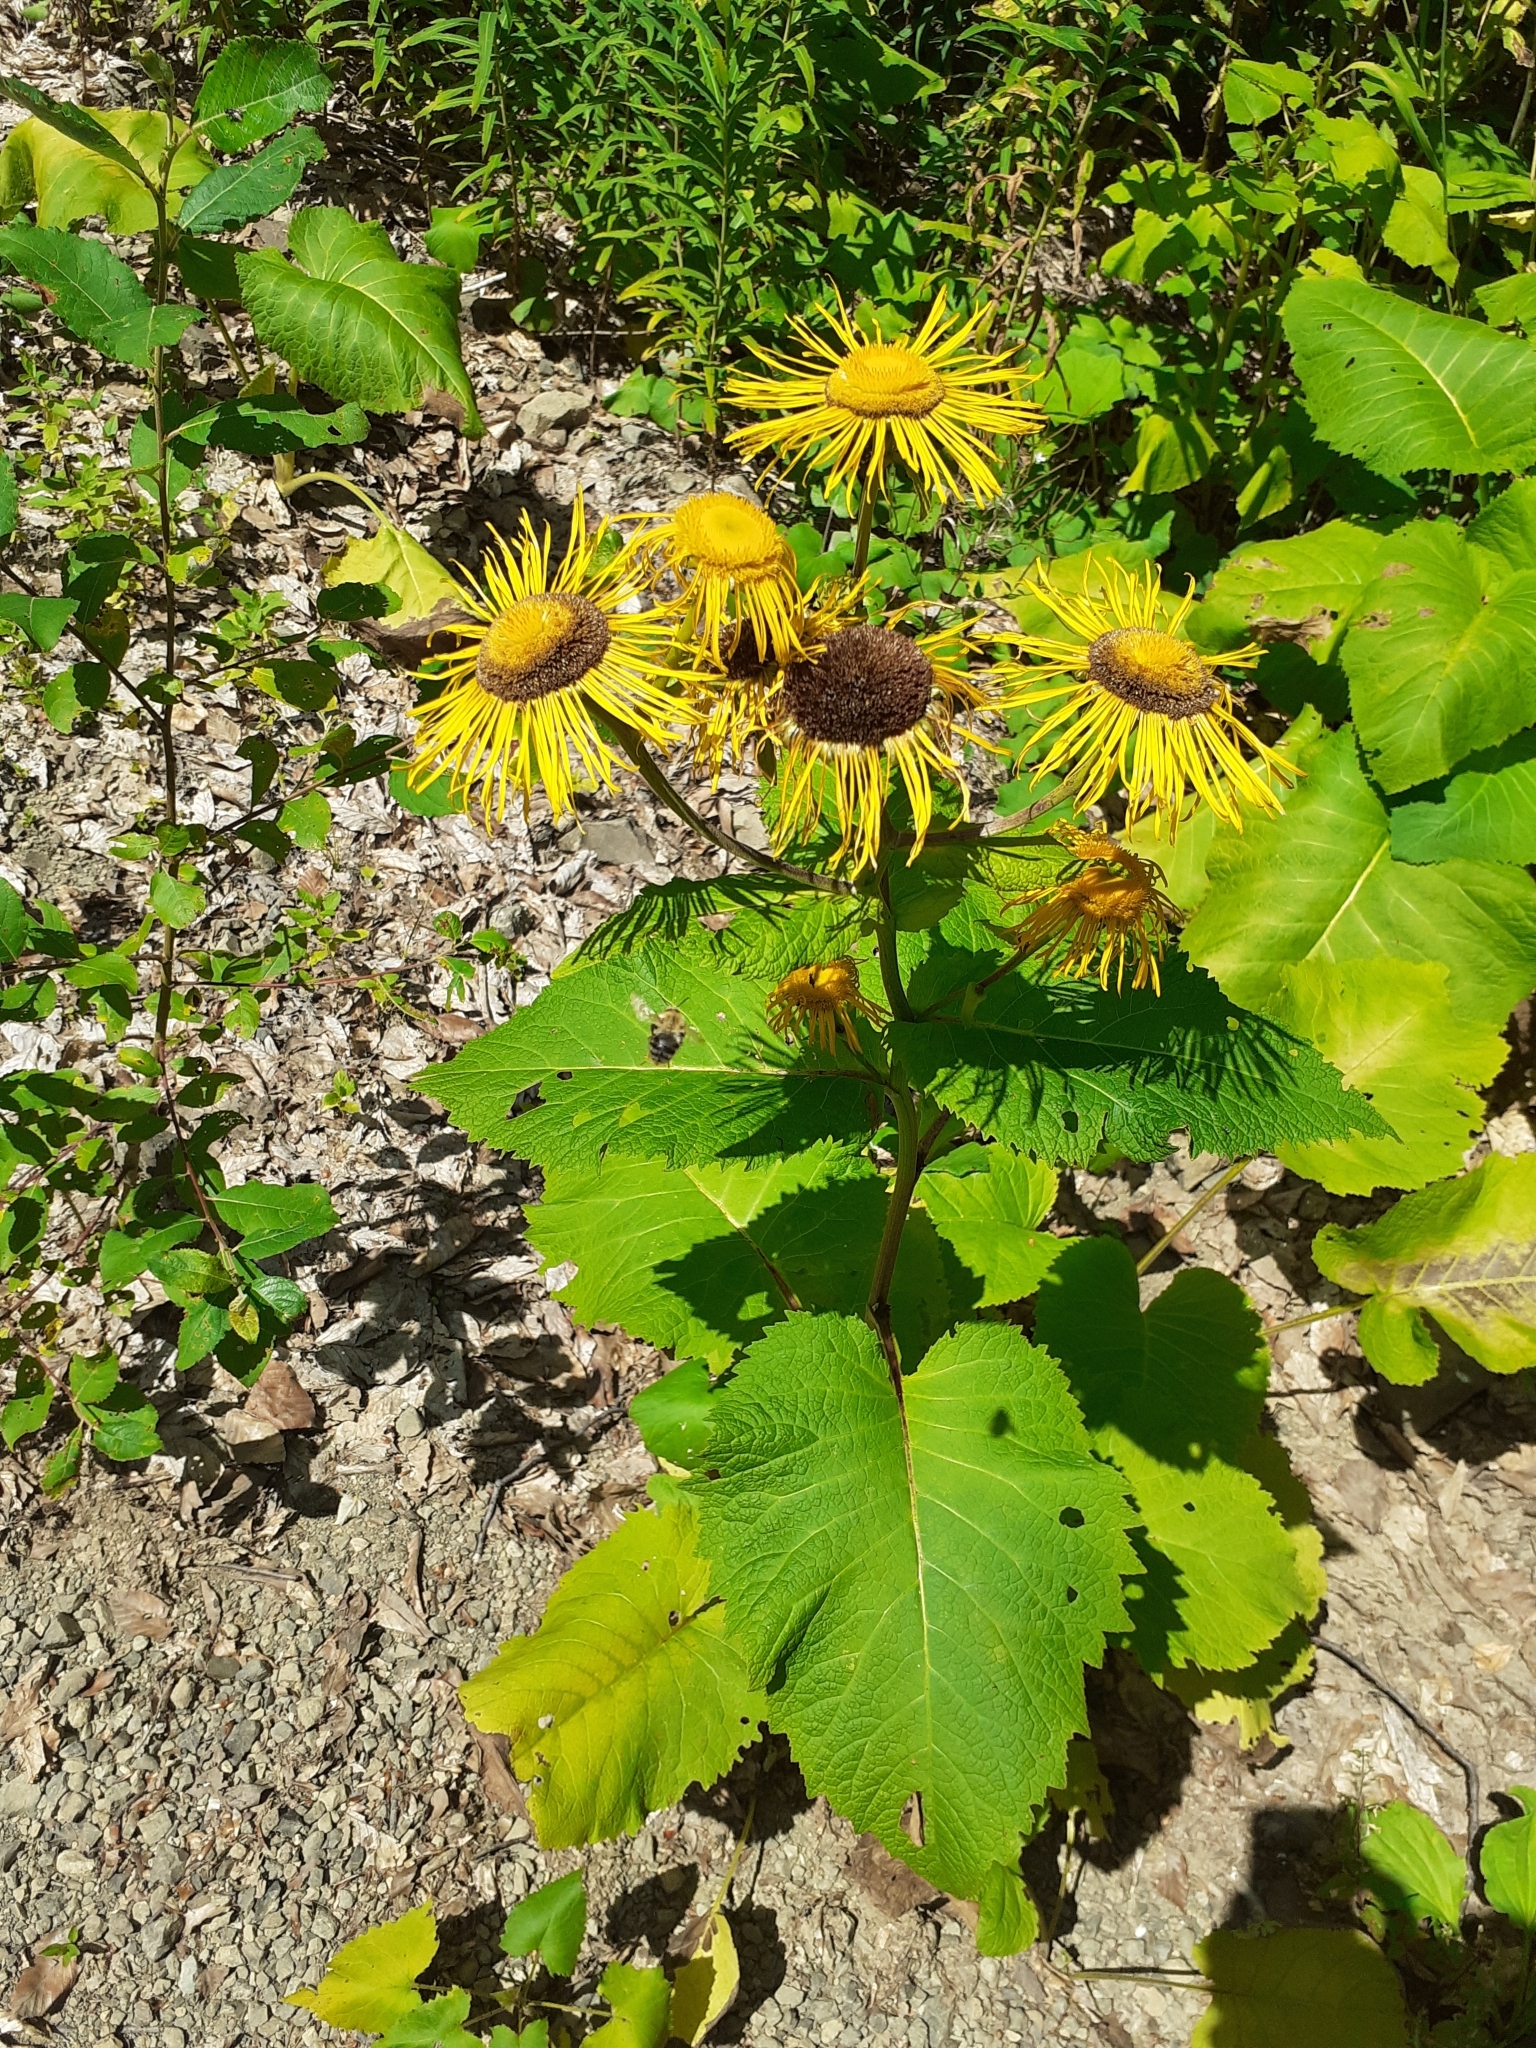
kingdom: Plantae
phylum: Tracheophyta
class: Magnoliopsida
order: Asterales
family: Asteraceae
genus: Telekia
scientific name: Telekia speciosa
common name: Yellow oxeye
